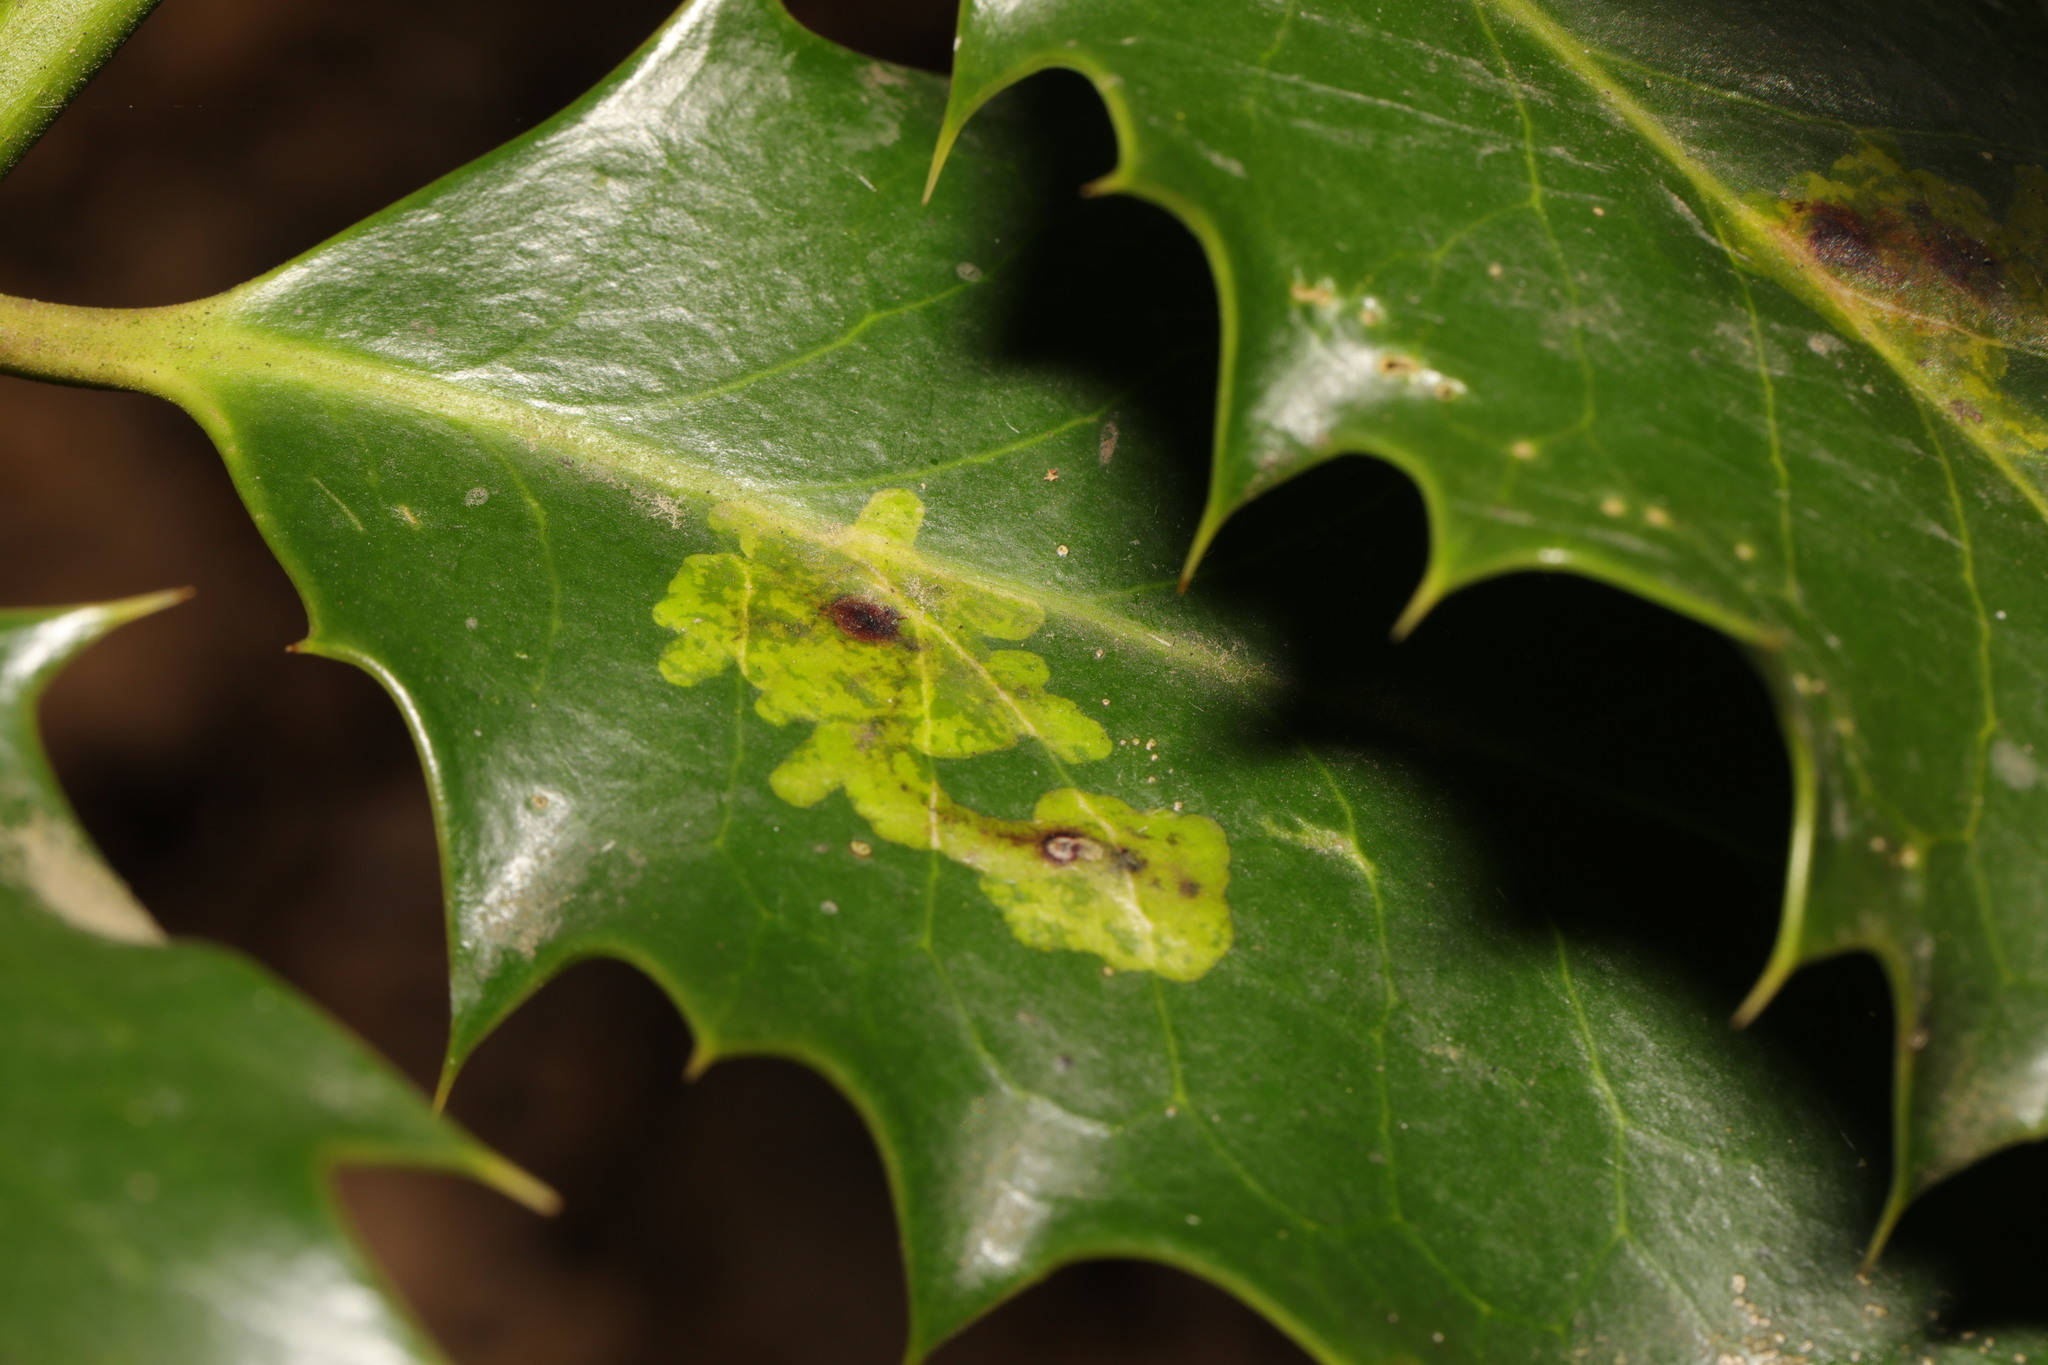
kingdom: Animalia
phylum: Arthropoda
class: Insecta
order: Diptera
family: Agromyzidae
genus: Phytomyza
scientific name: Phytomyza ilicis
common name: Holly leafminer
